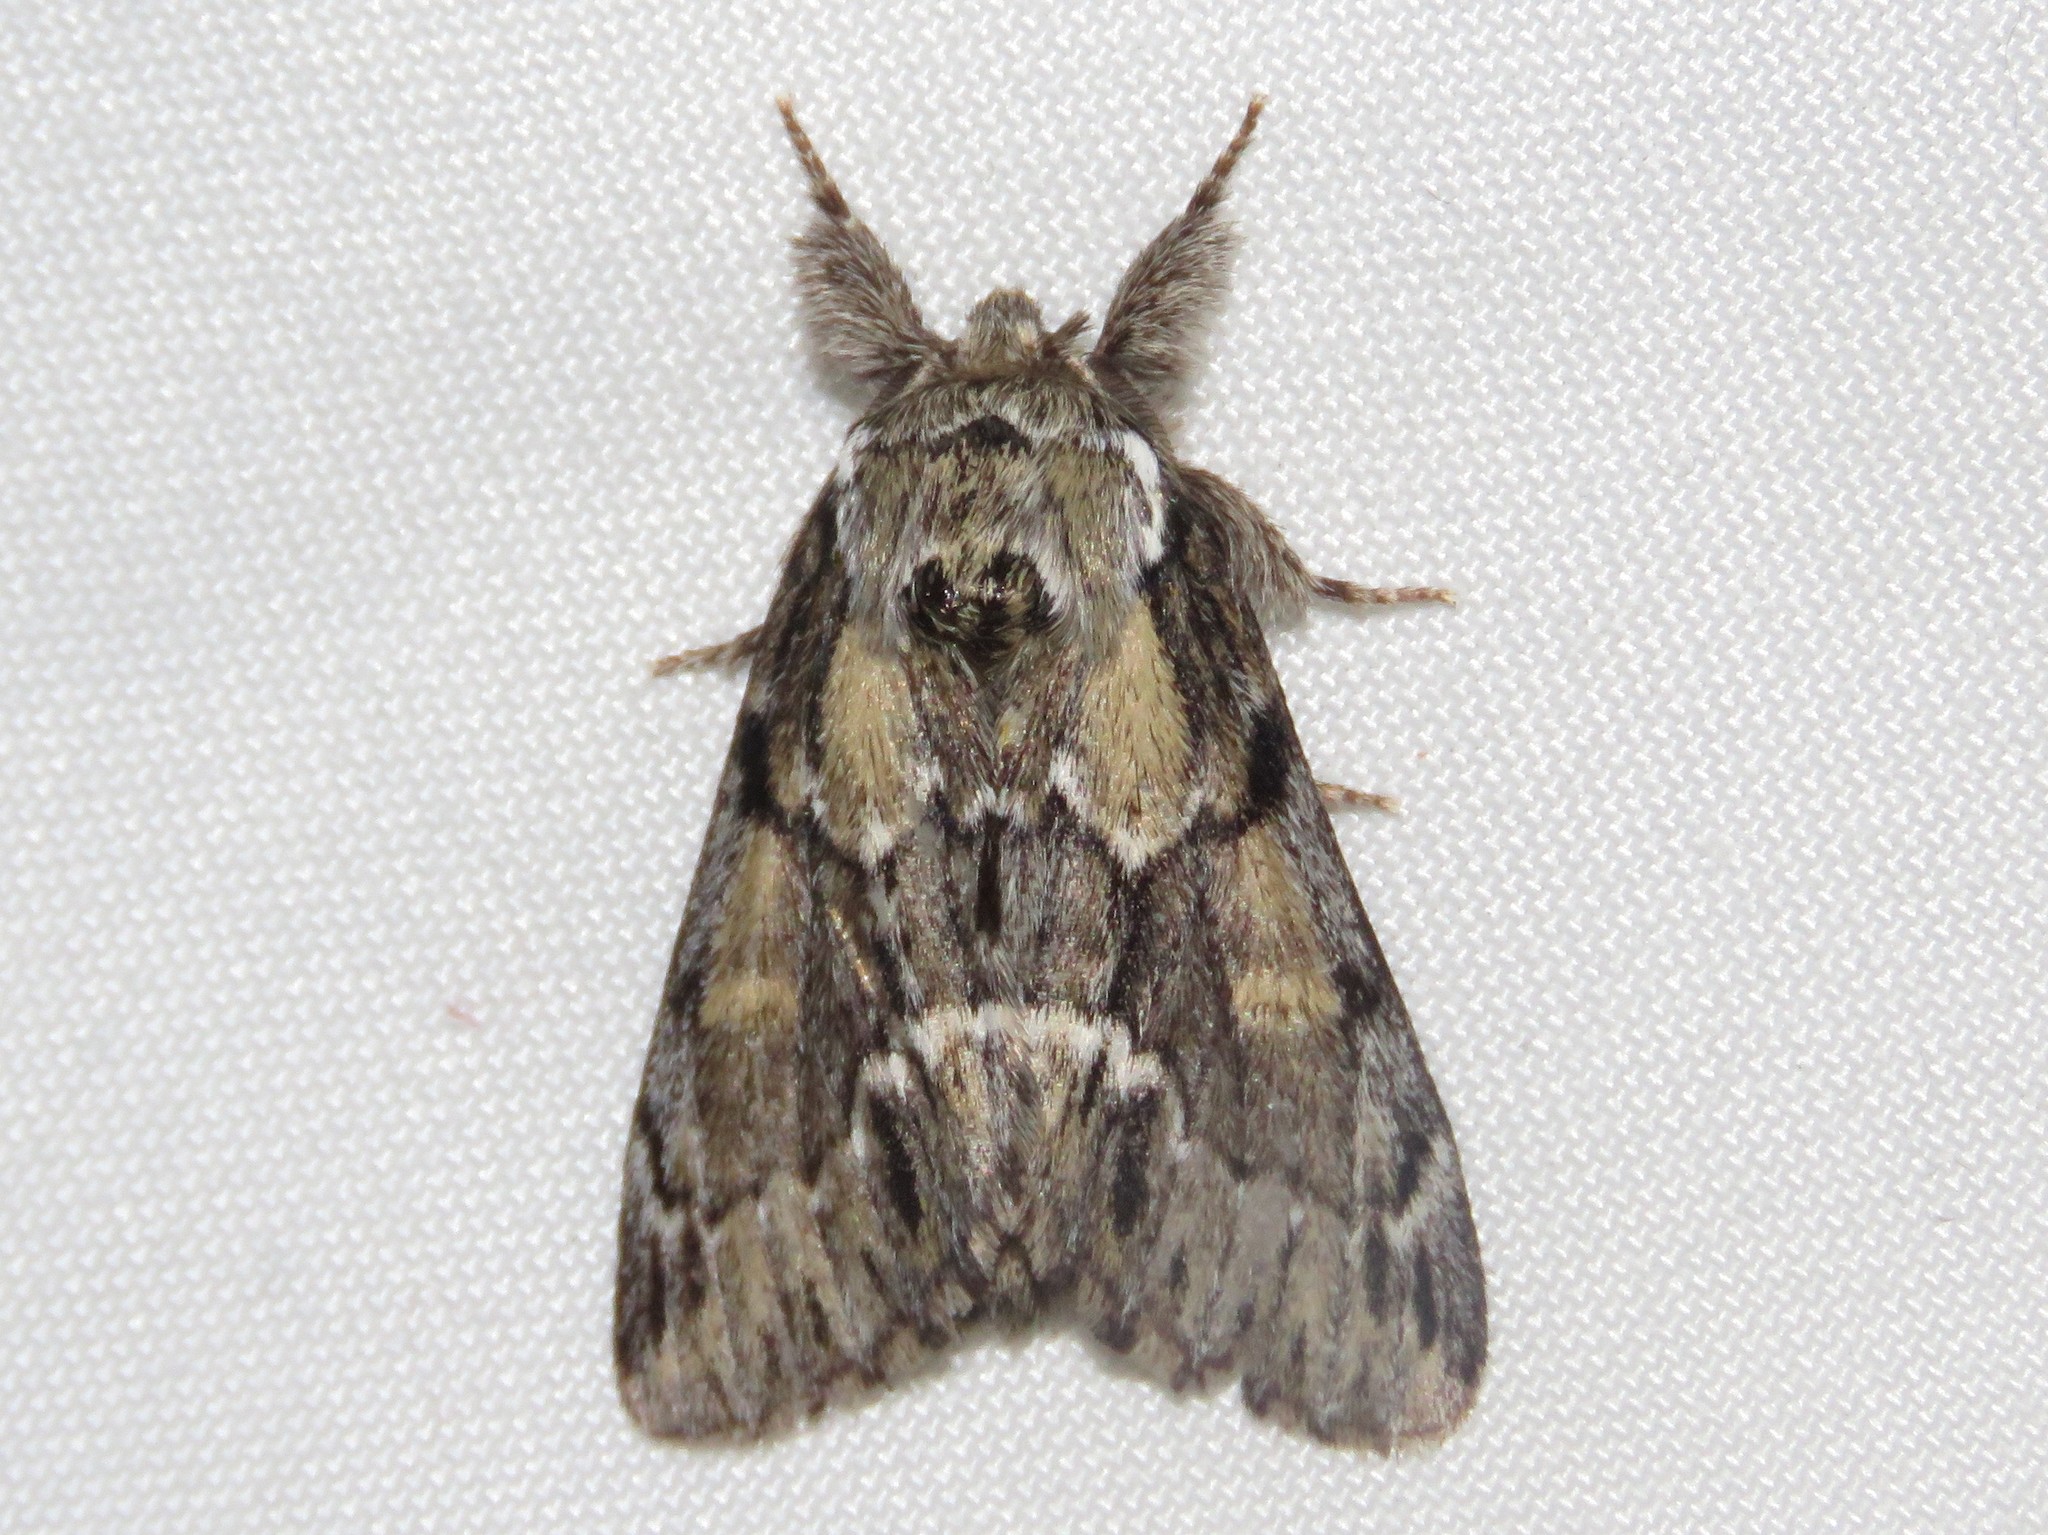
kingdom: Animalia
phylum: Arthropoda
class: Insecta
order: Lepidoptera
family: Notodontidae
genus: Paraeschra
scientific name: Paraeschra georgica
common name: Georgian prominent
